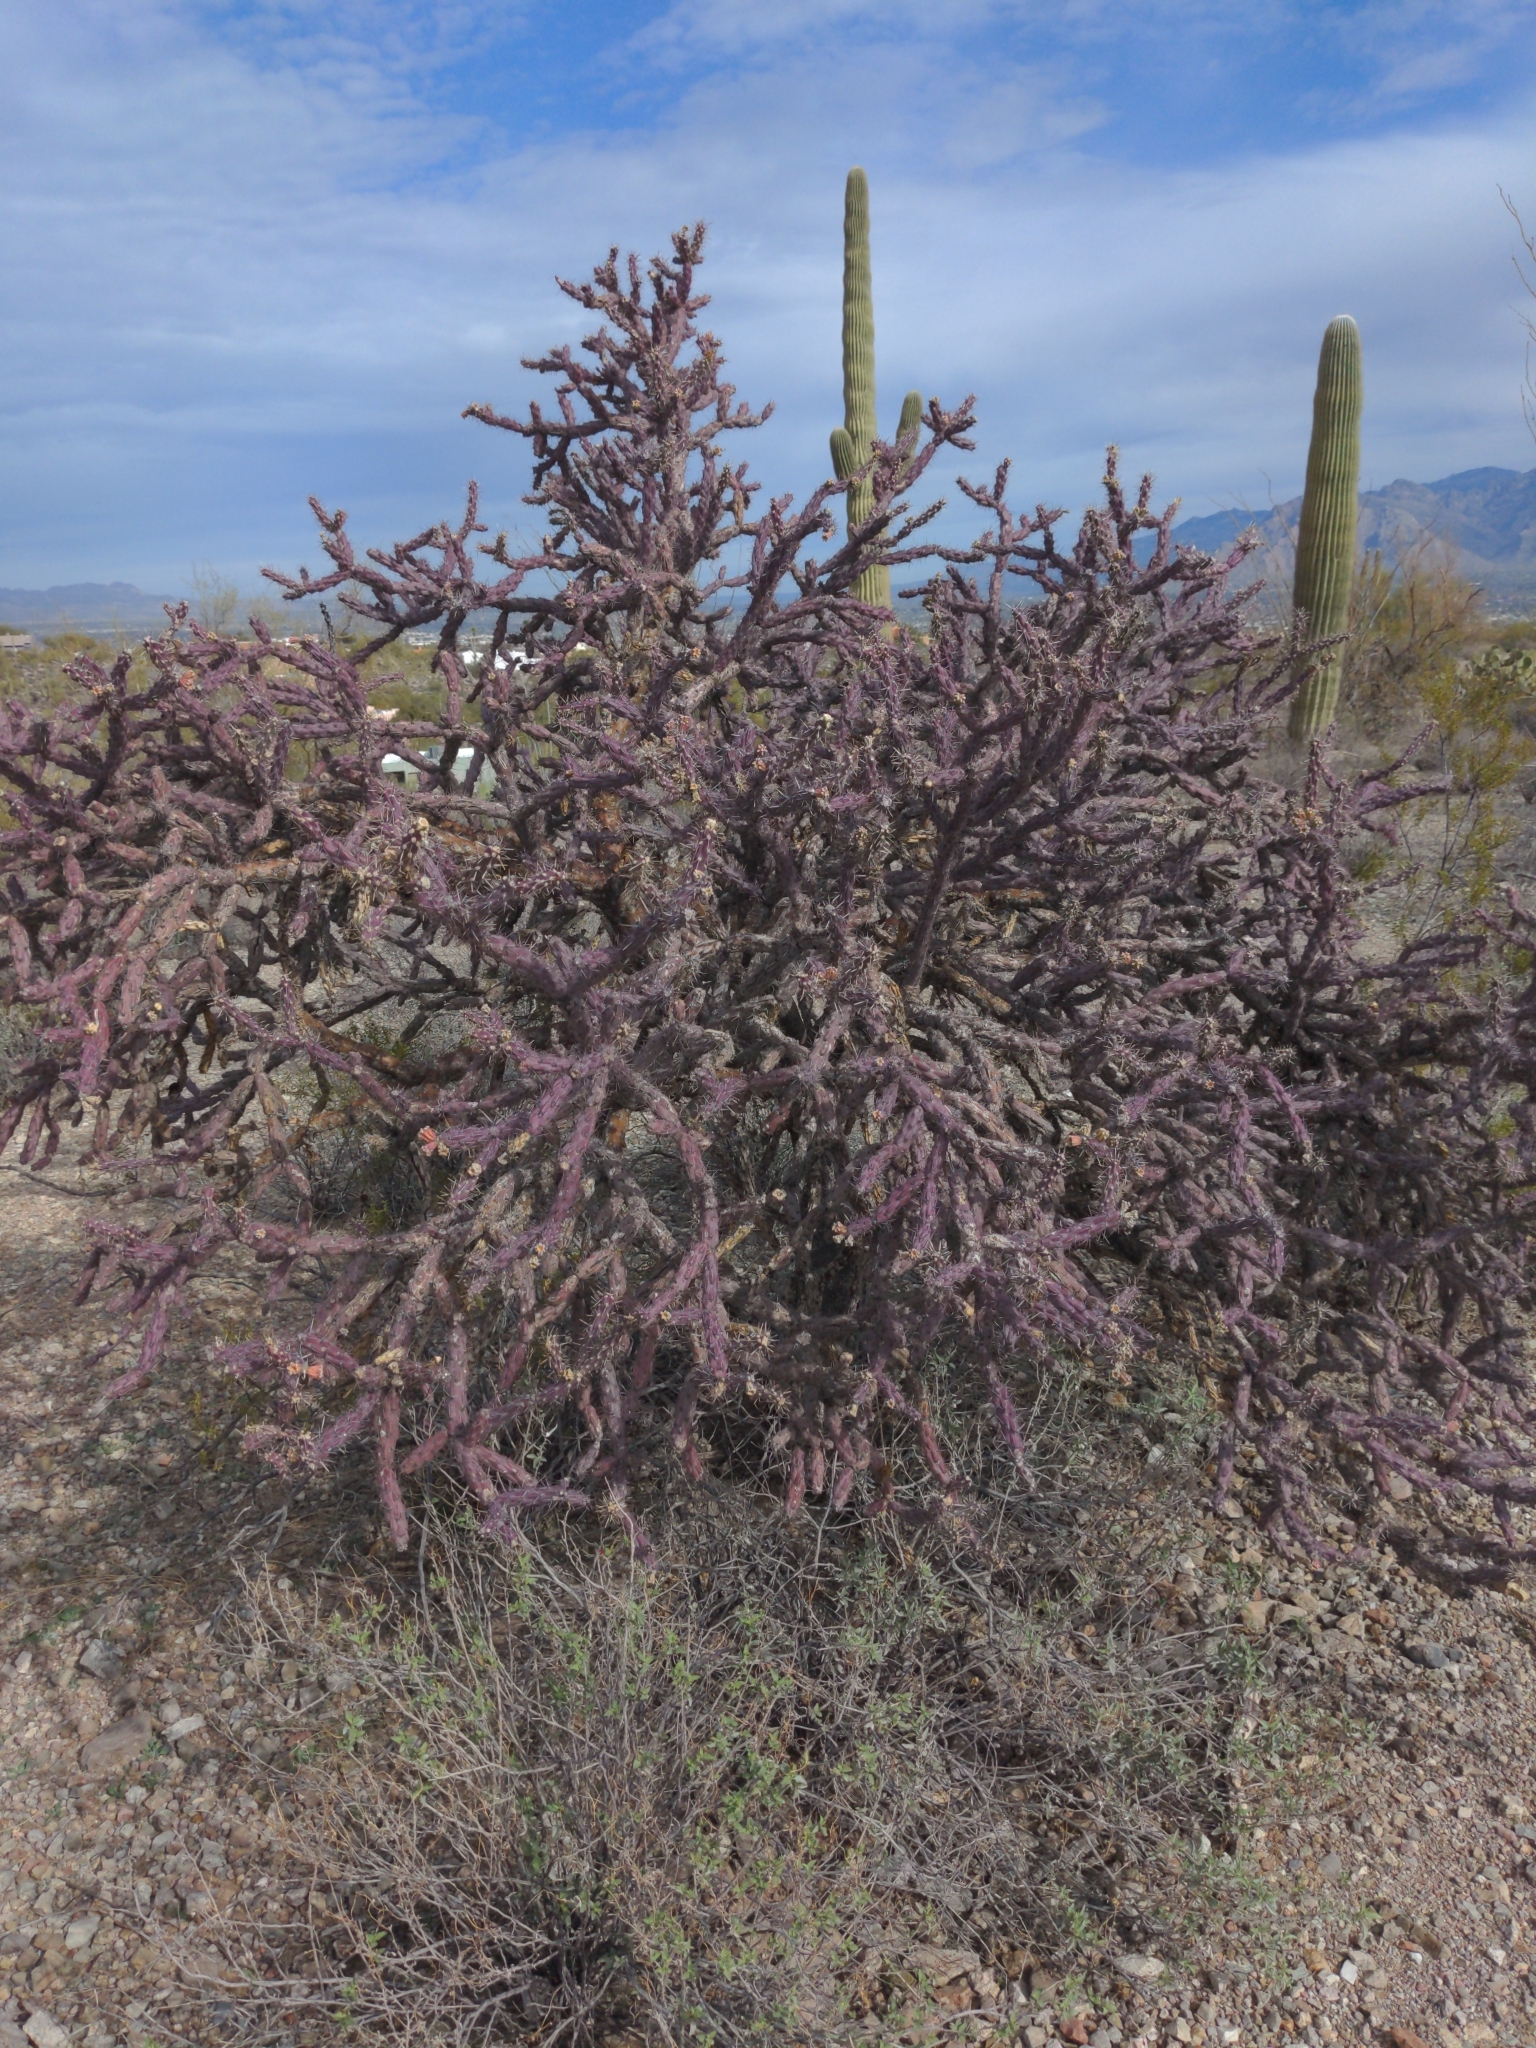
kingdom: Plantae
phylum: Tracheophyta
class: Magnoliopsida
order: Caryophyllales
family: Cactaceae
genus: Cylindropuntia
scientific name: Cylindropuntia thurberi
